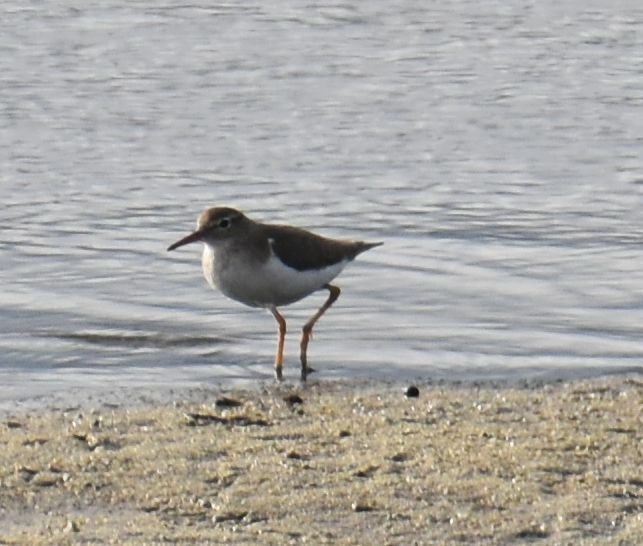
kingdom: Animalia
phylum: Chordata
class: Aves
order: Charadriiformes
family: Scolopacidae
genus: Actitis
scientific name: Actitis macularius
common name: Spotted sandpiper
